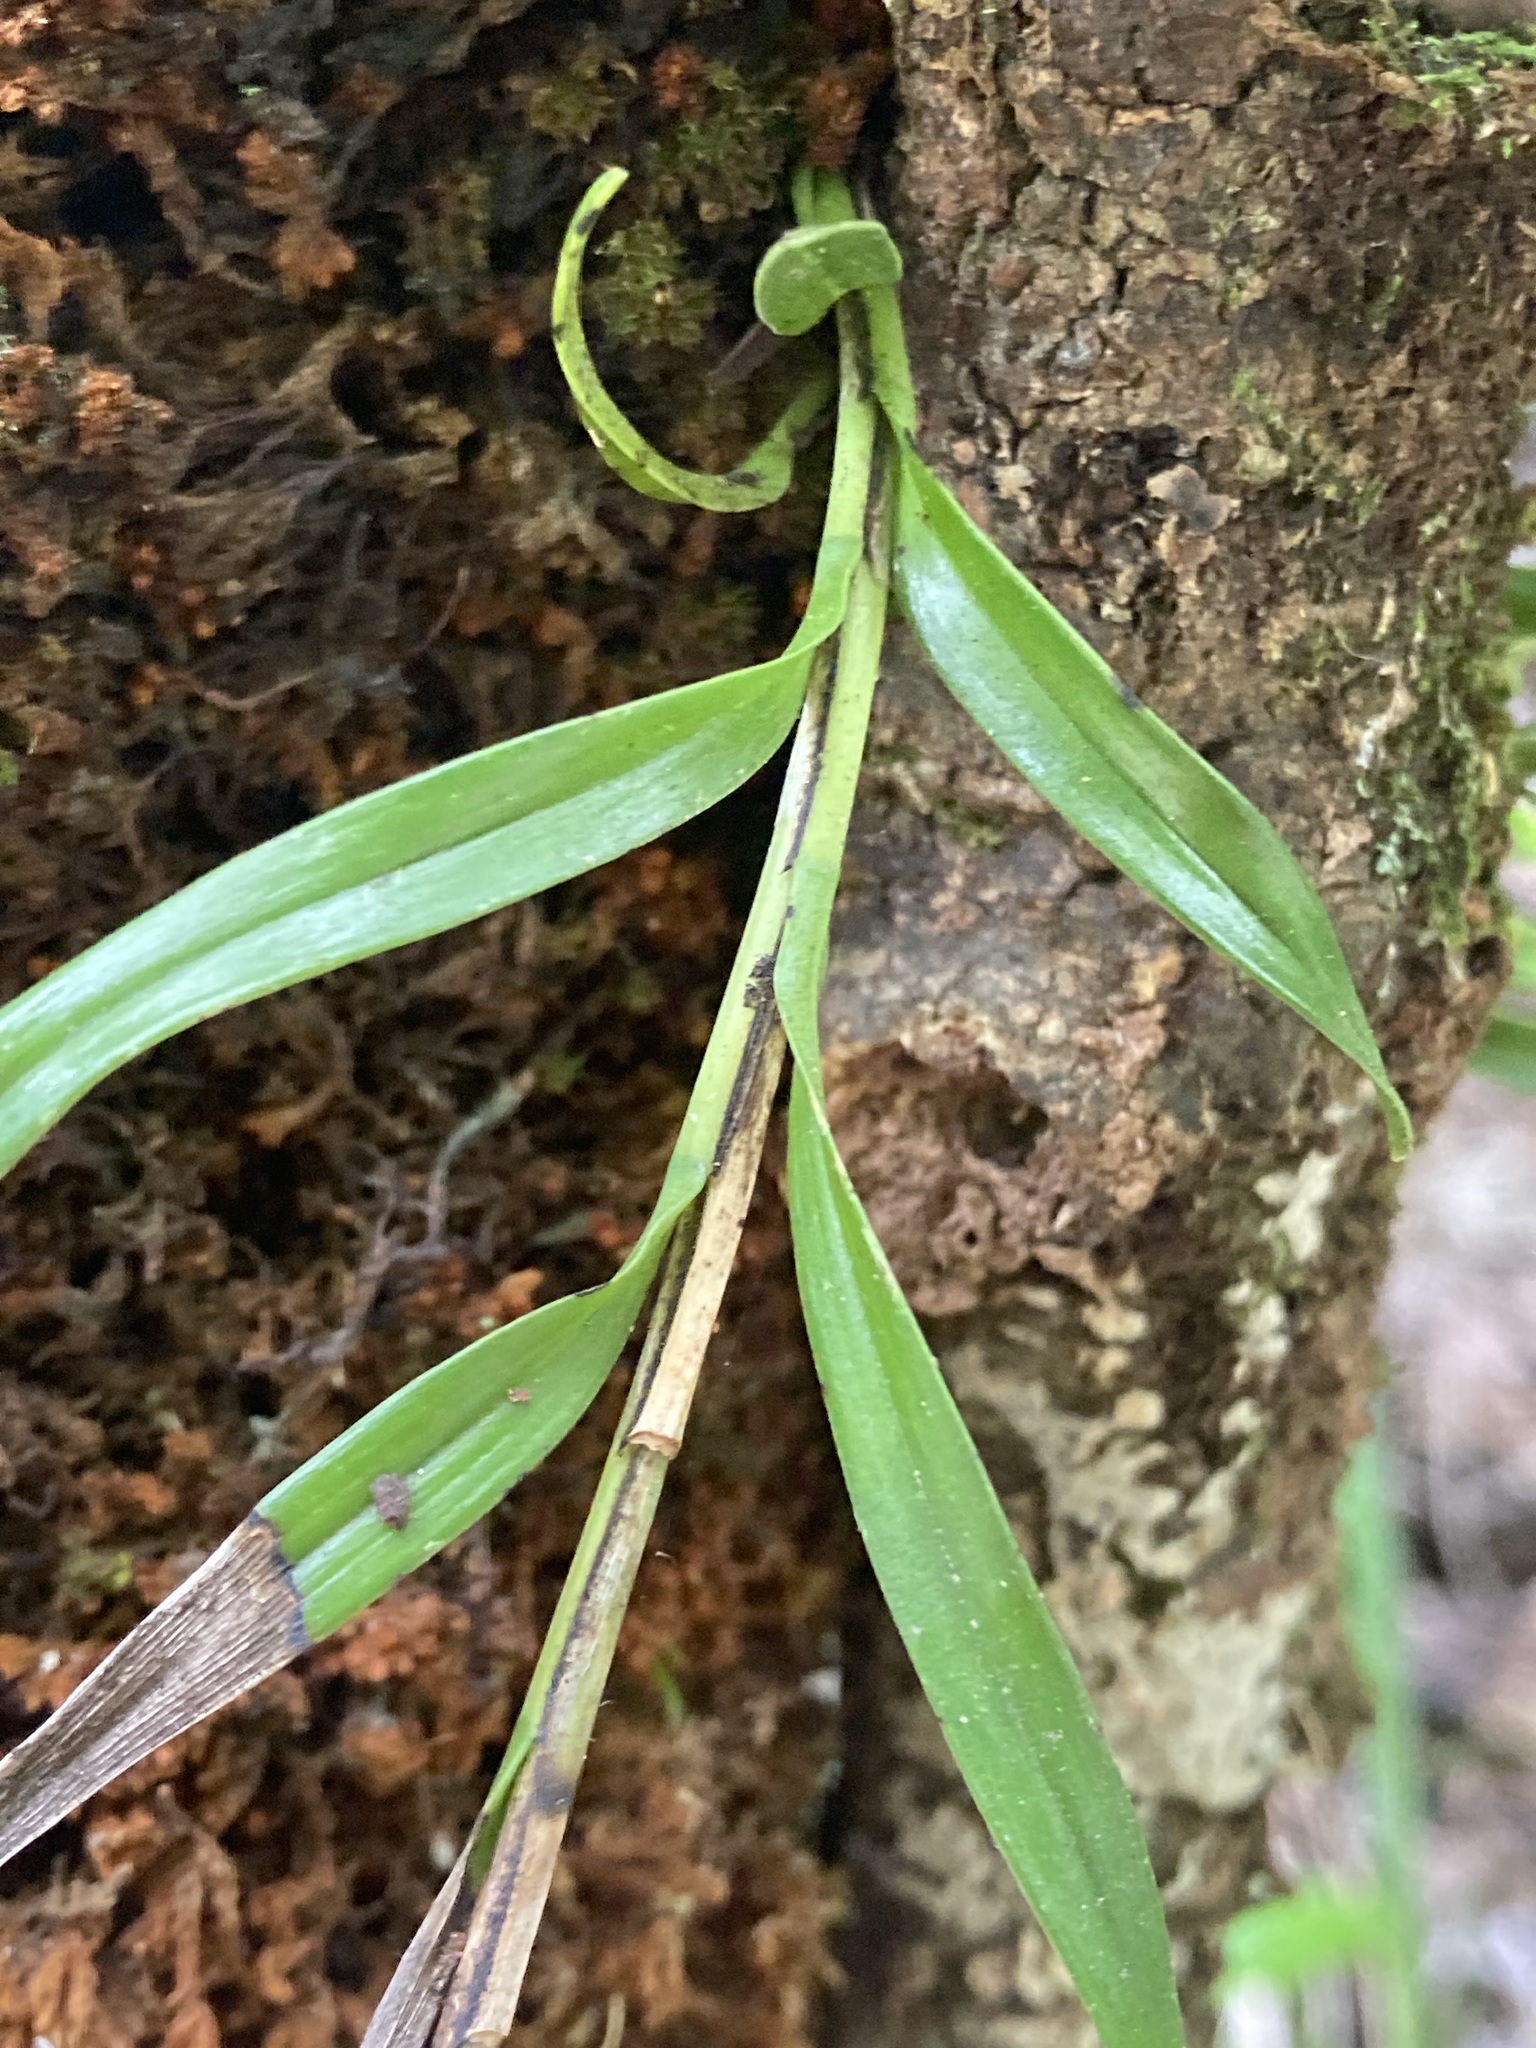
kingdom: Plantae
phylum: Tracheophyta
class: Liliopsida
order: Asparagales
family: Orchidaceae
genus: Earina
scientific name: Earina autumnalis
